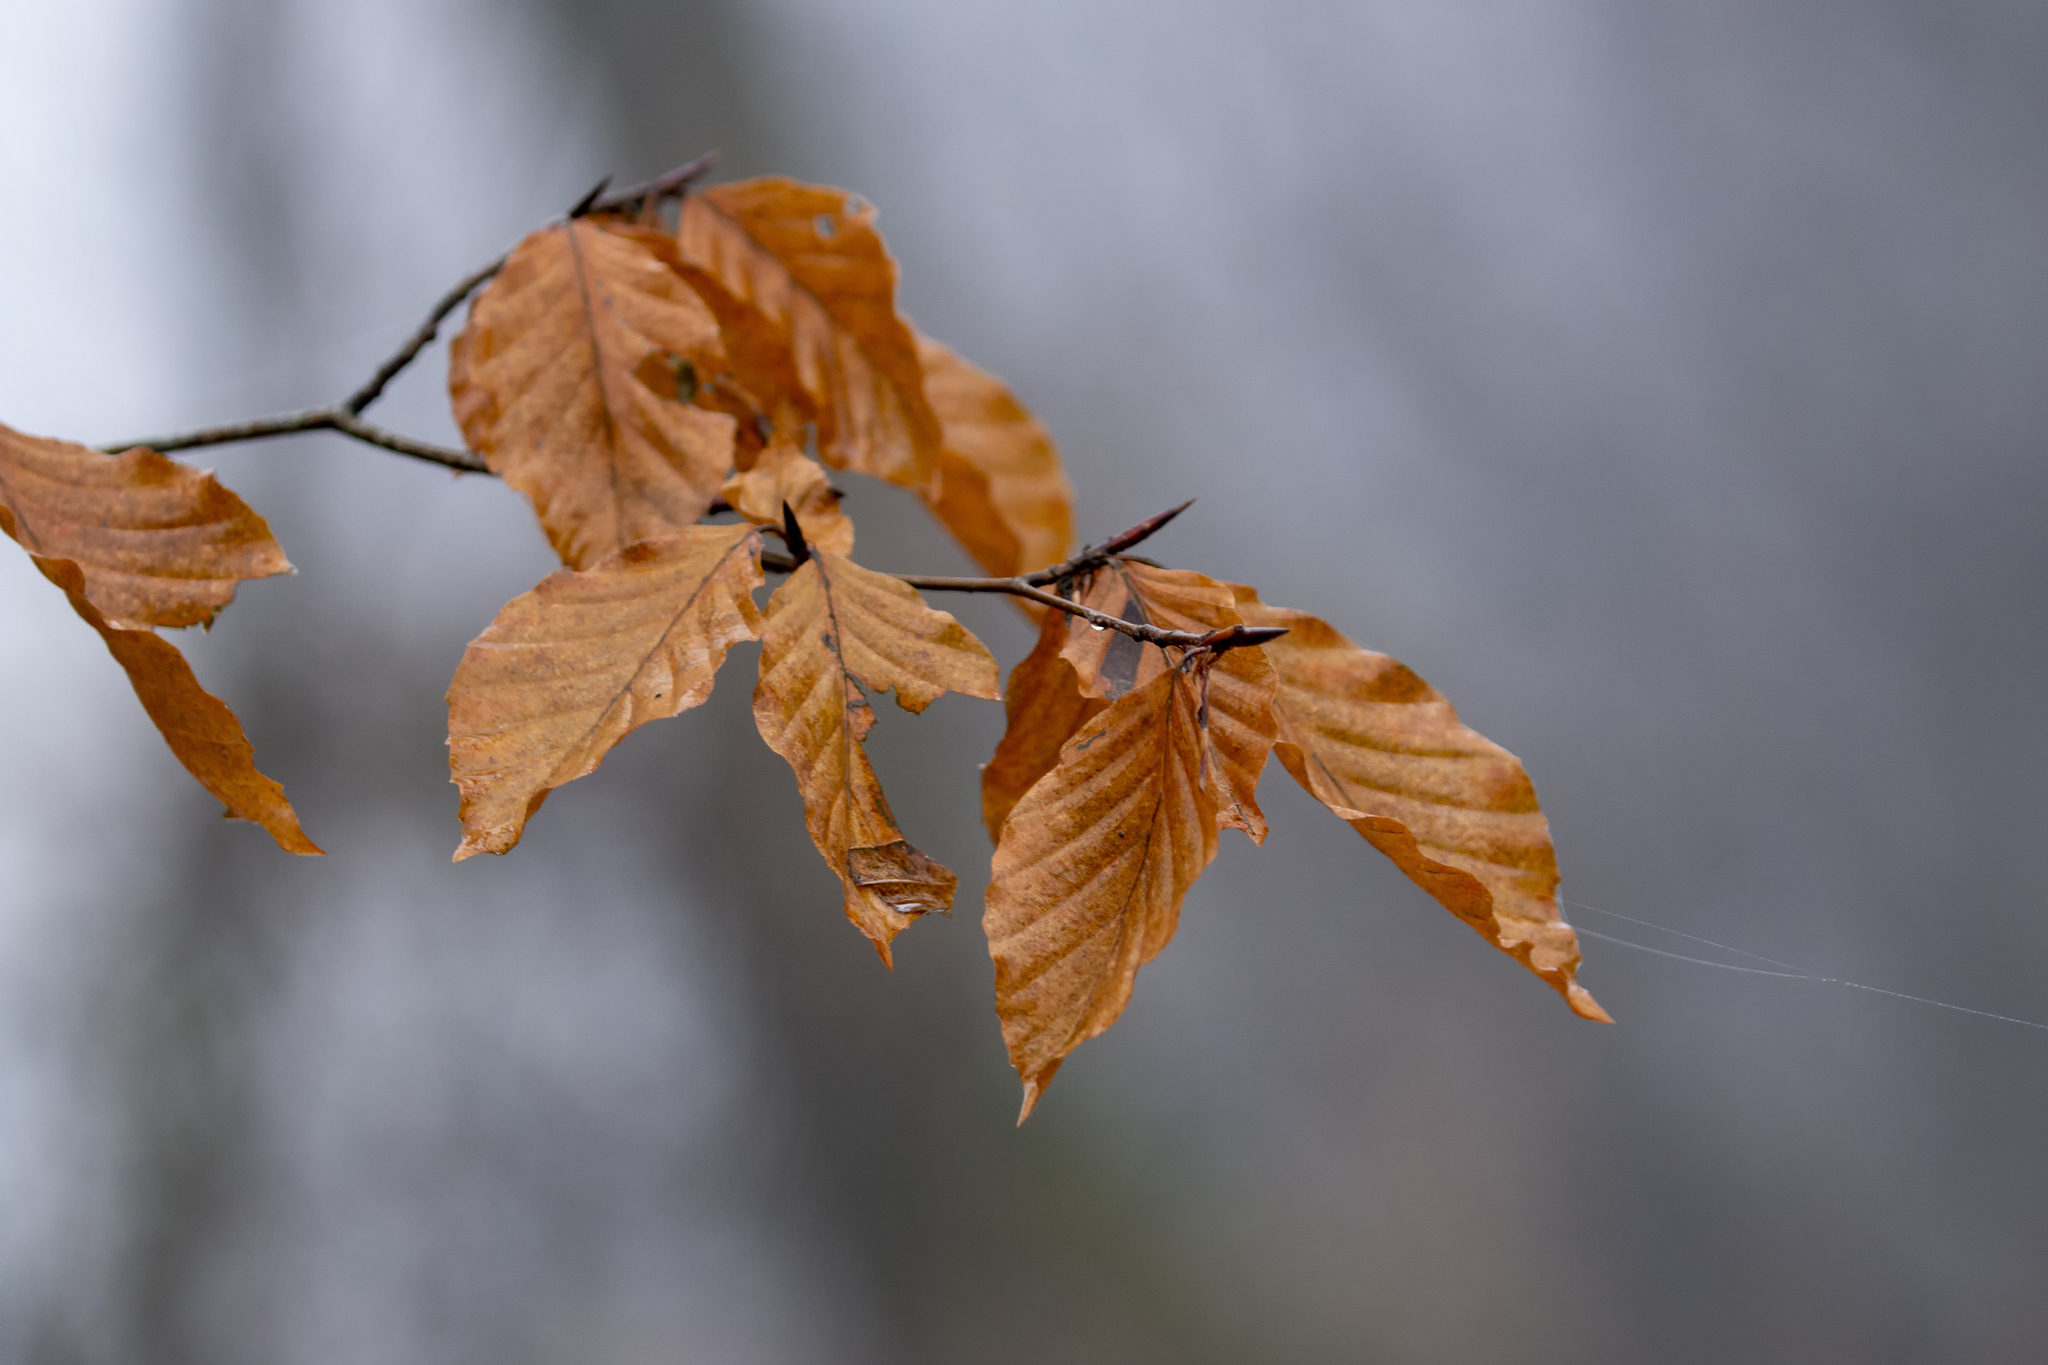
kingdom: Plantae
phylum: Tracheophyta
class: Magnoliopsida
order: Fagales
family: Fagaceae
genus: Fagus
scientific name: Fagus sylvatica
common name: Beech
